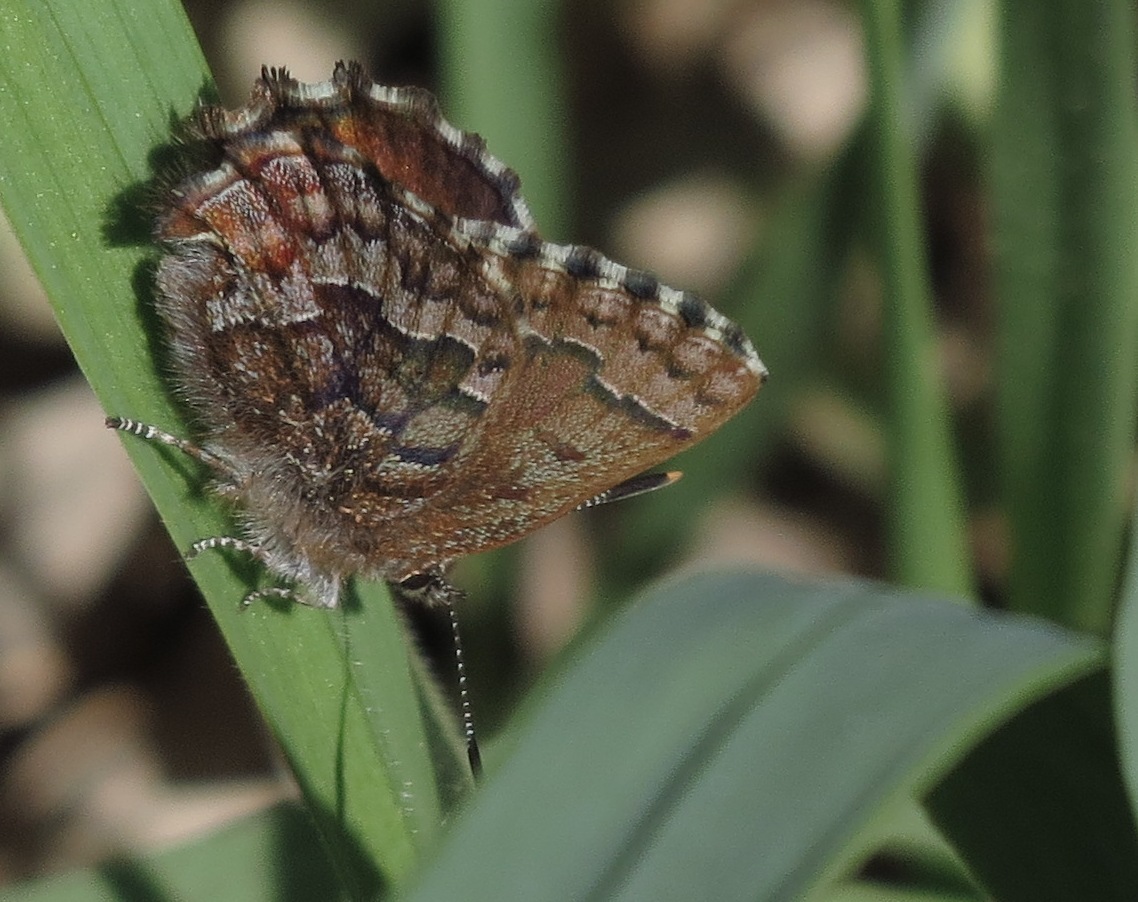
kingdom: Animalia
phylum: Arthropoda
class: Insecta
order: Lepidoptera
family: Lycaenidae
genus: Incisalia
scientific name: Incisalia niphon
